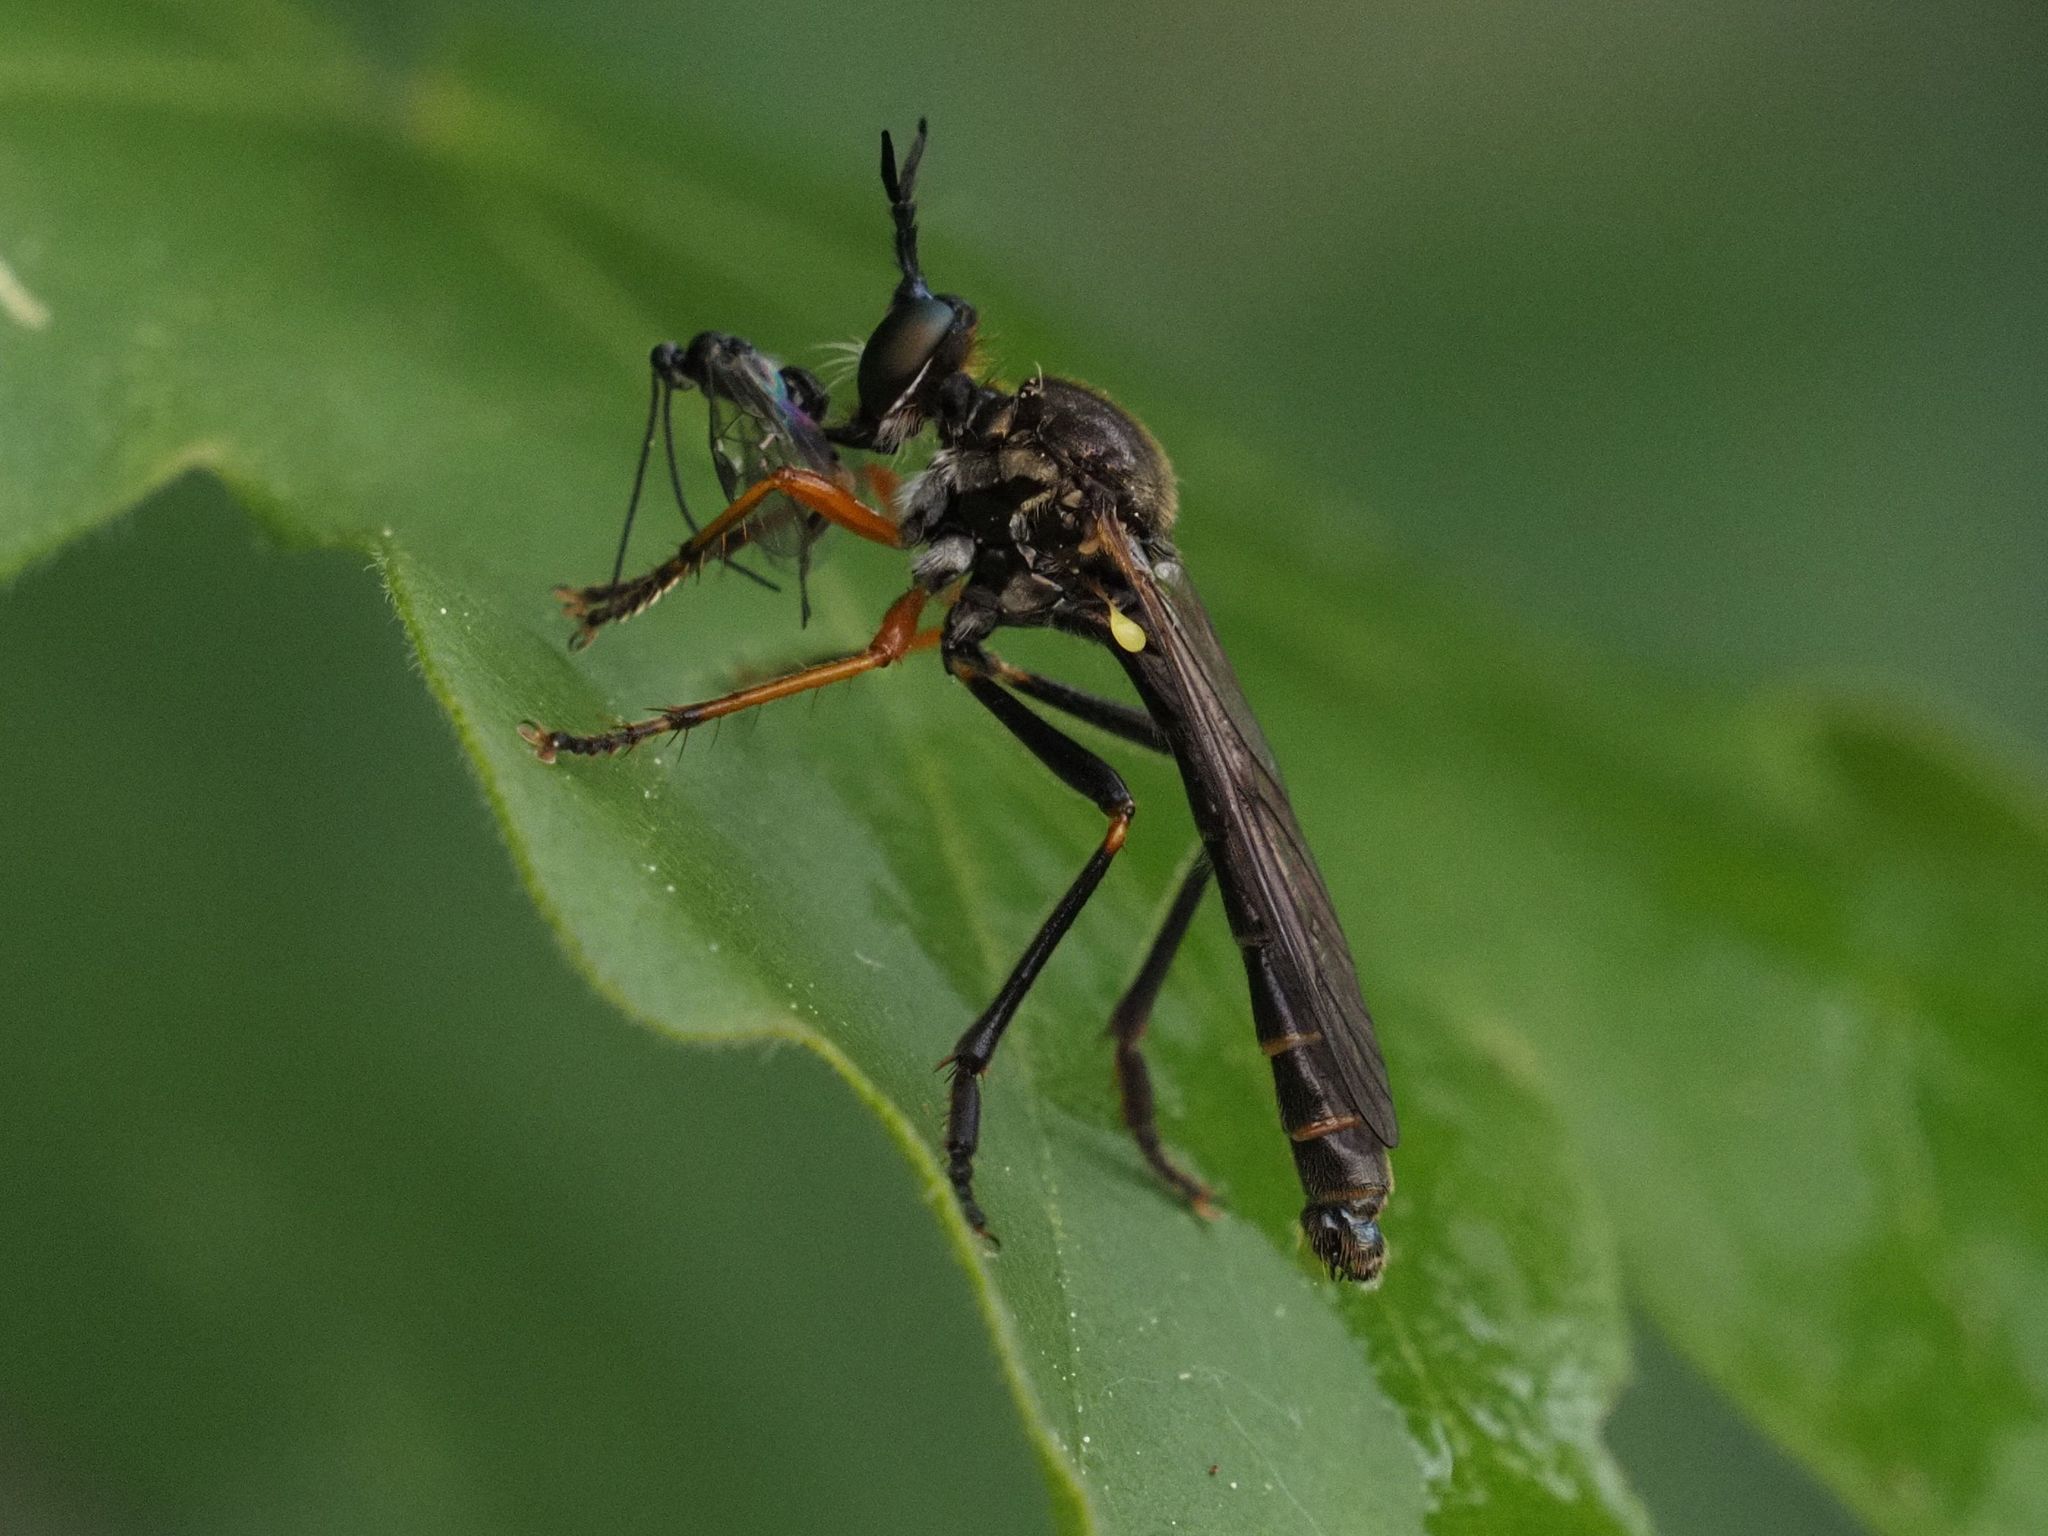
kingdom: Animalia
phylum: Arthropoda
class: Insecta
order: Diptera
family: Asilidae
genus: Dioctria
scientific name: Dioctria rufipes
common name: Common red-legged robberfly
